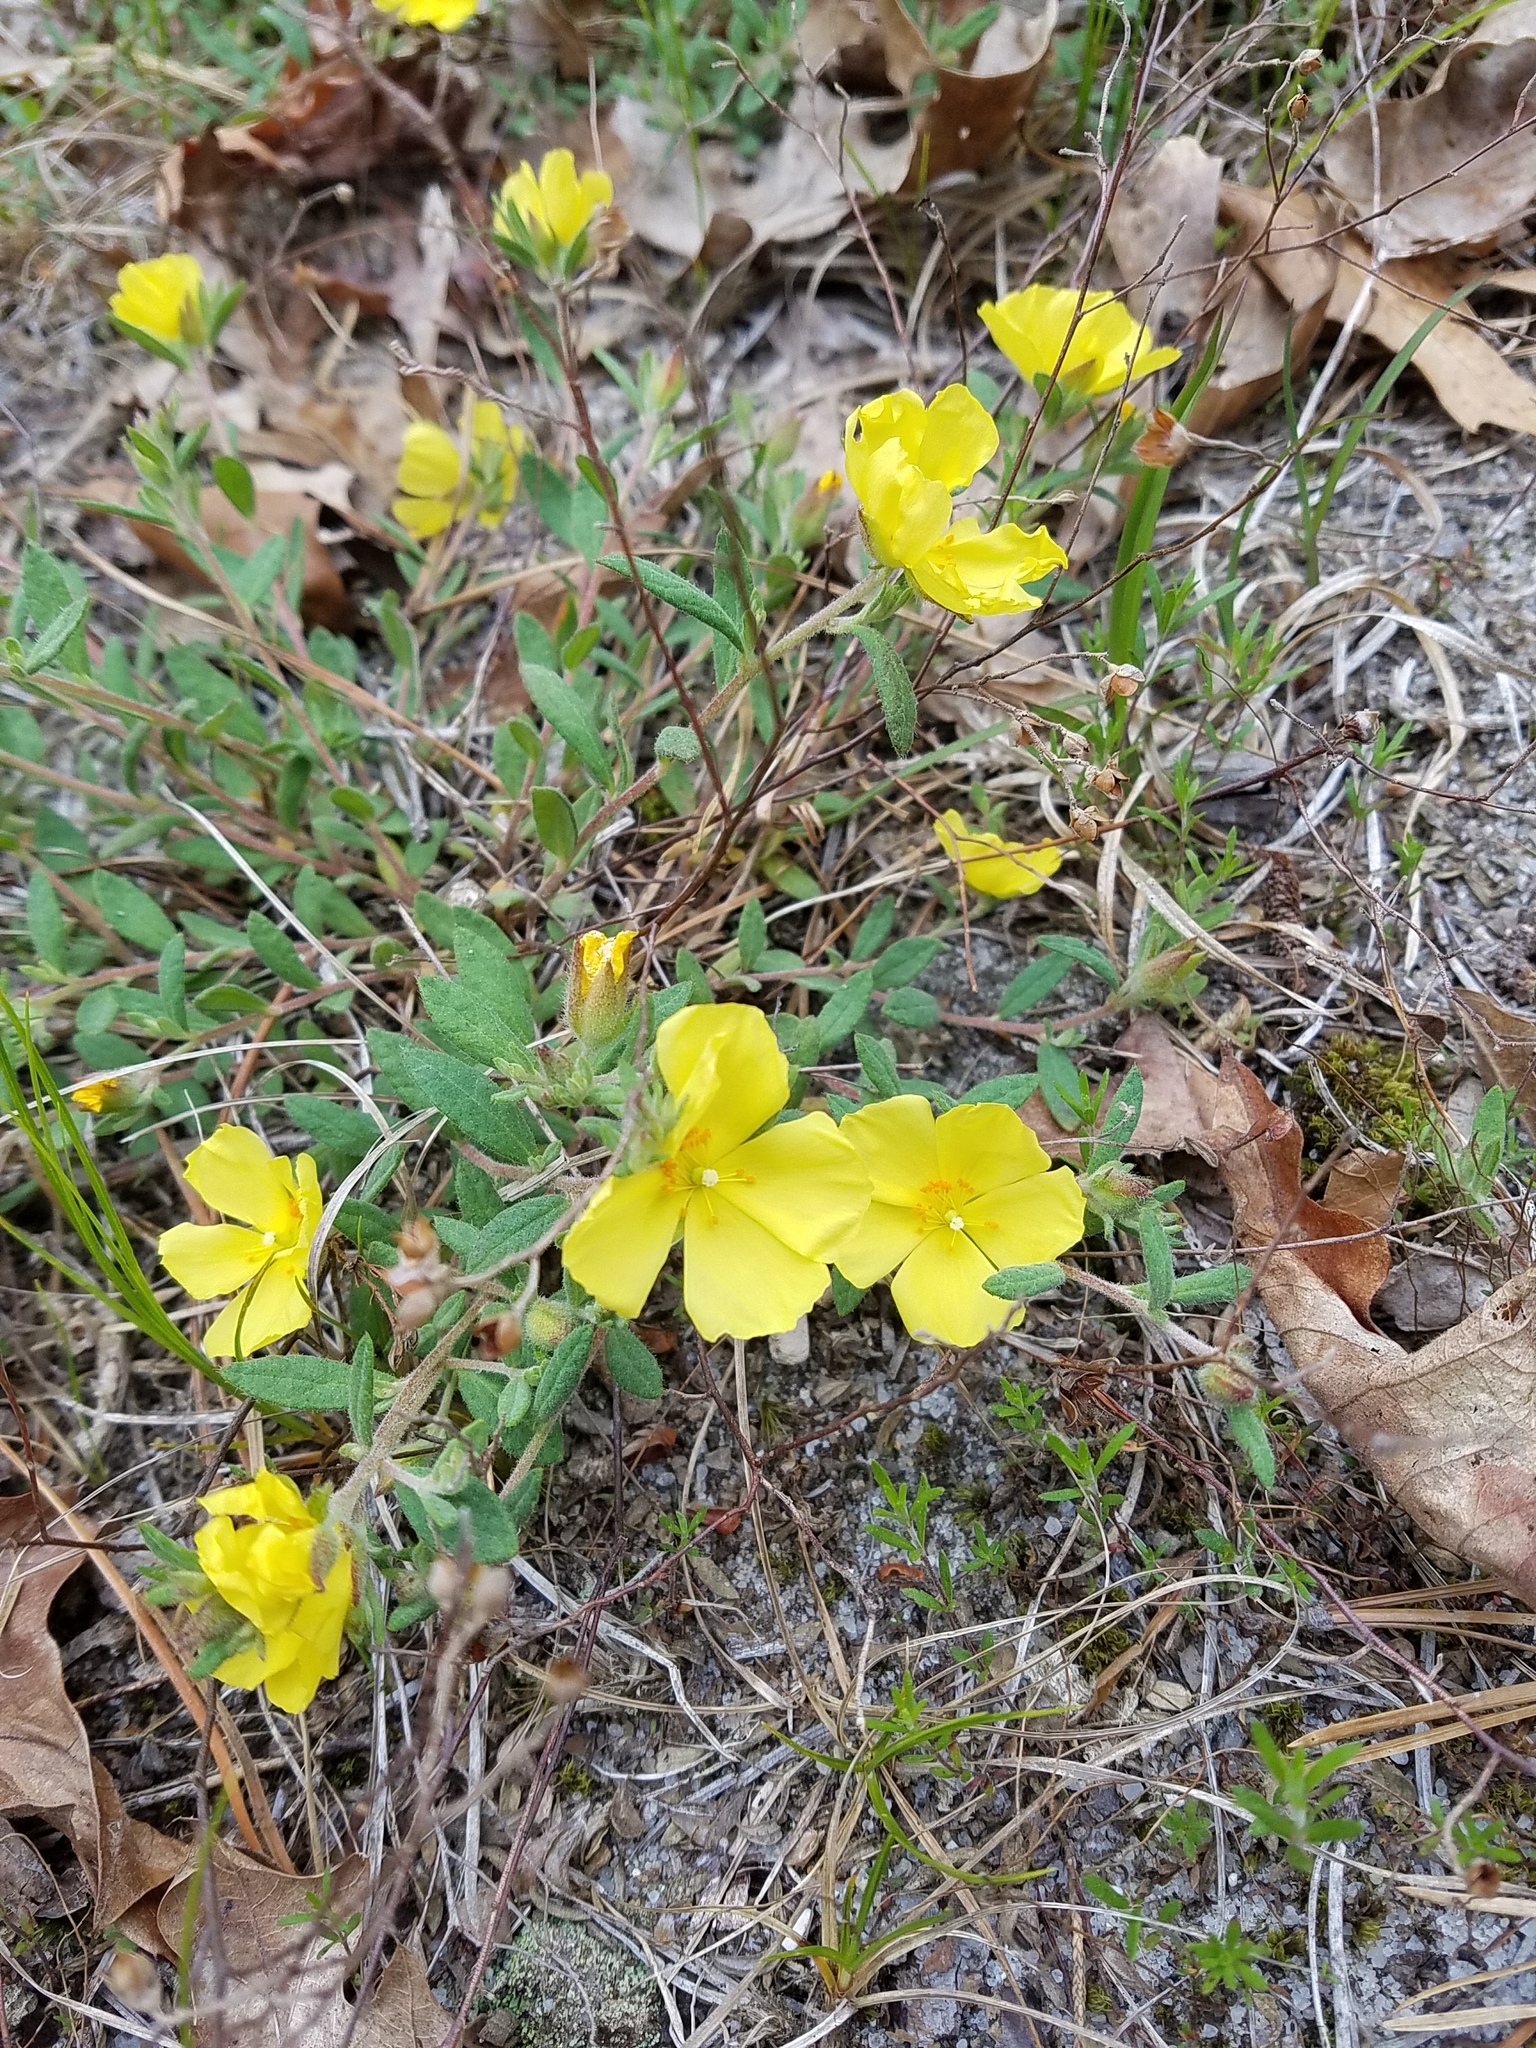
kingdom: Plantae
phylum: Tracheophyta
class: Magnoliopsida
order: Malvales
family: Cistaceae
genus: Crocanthemum
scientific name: Crocanthemum canadense
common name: Canada frostweed
